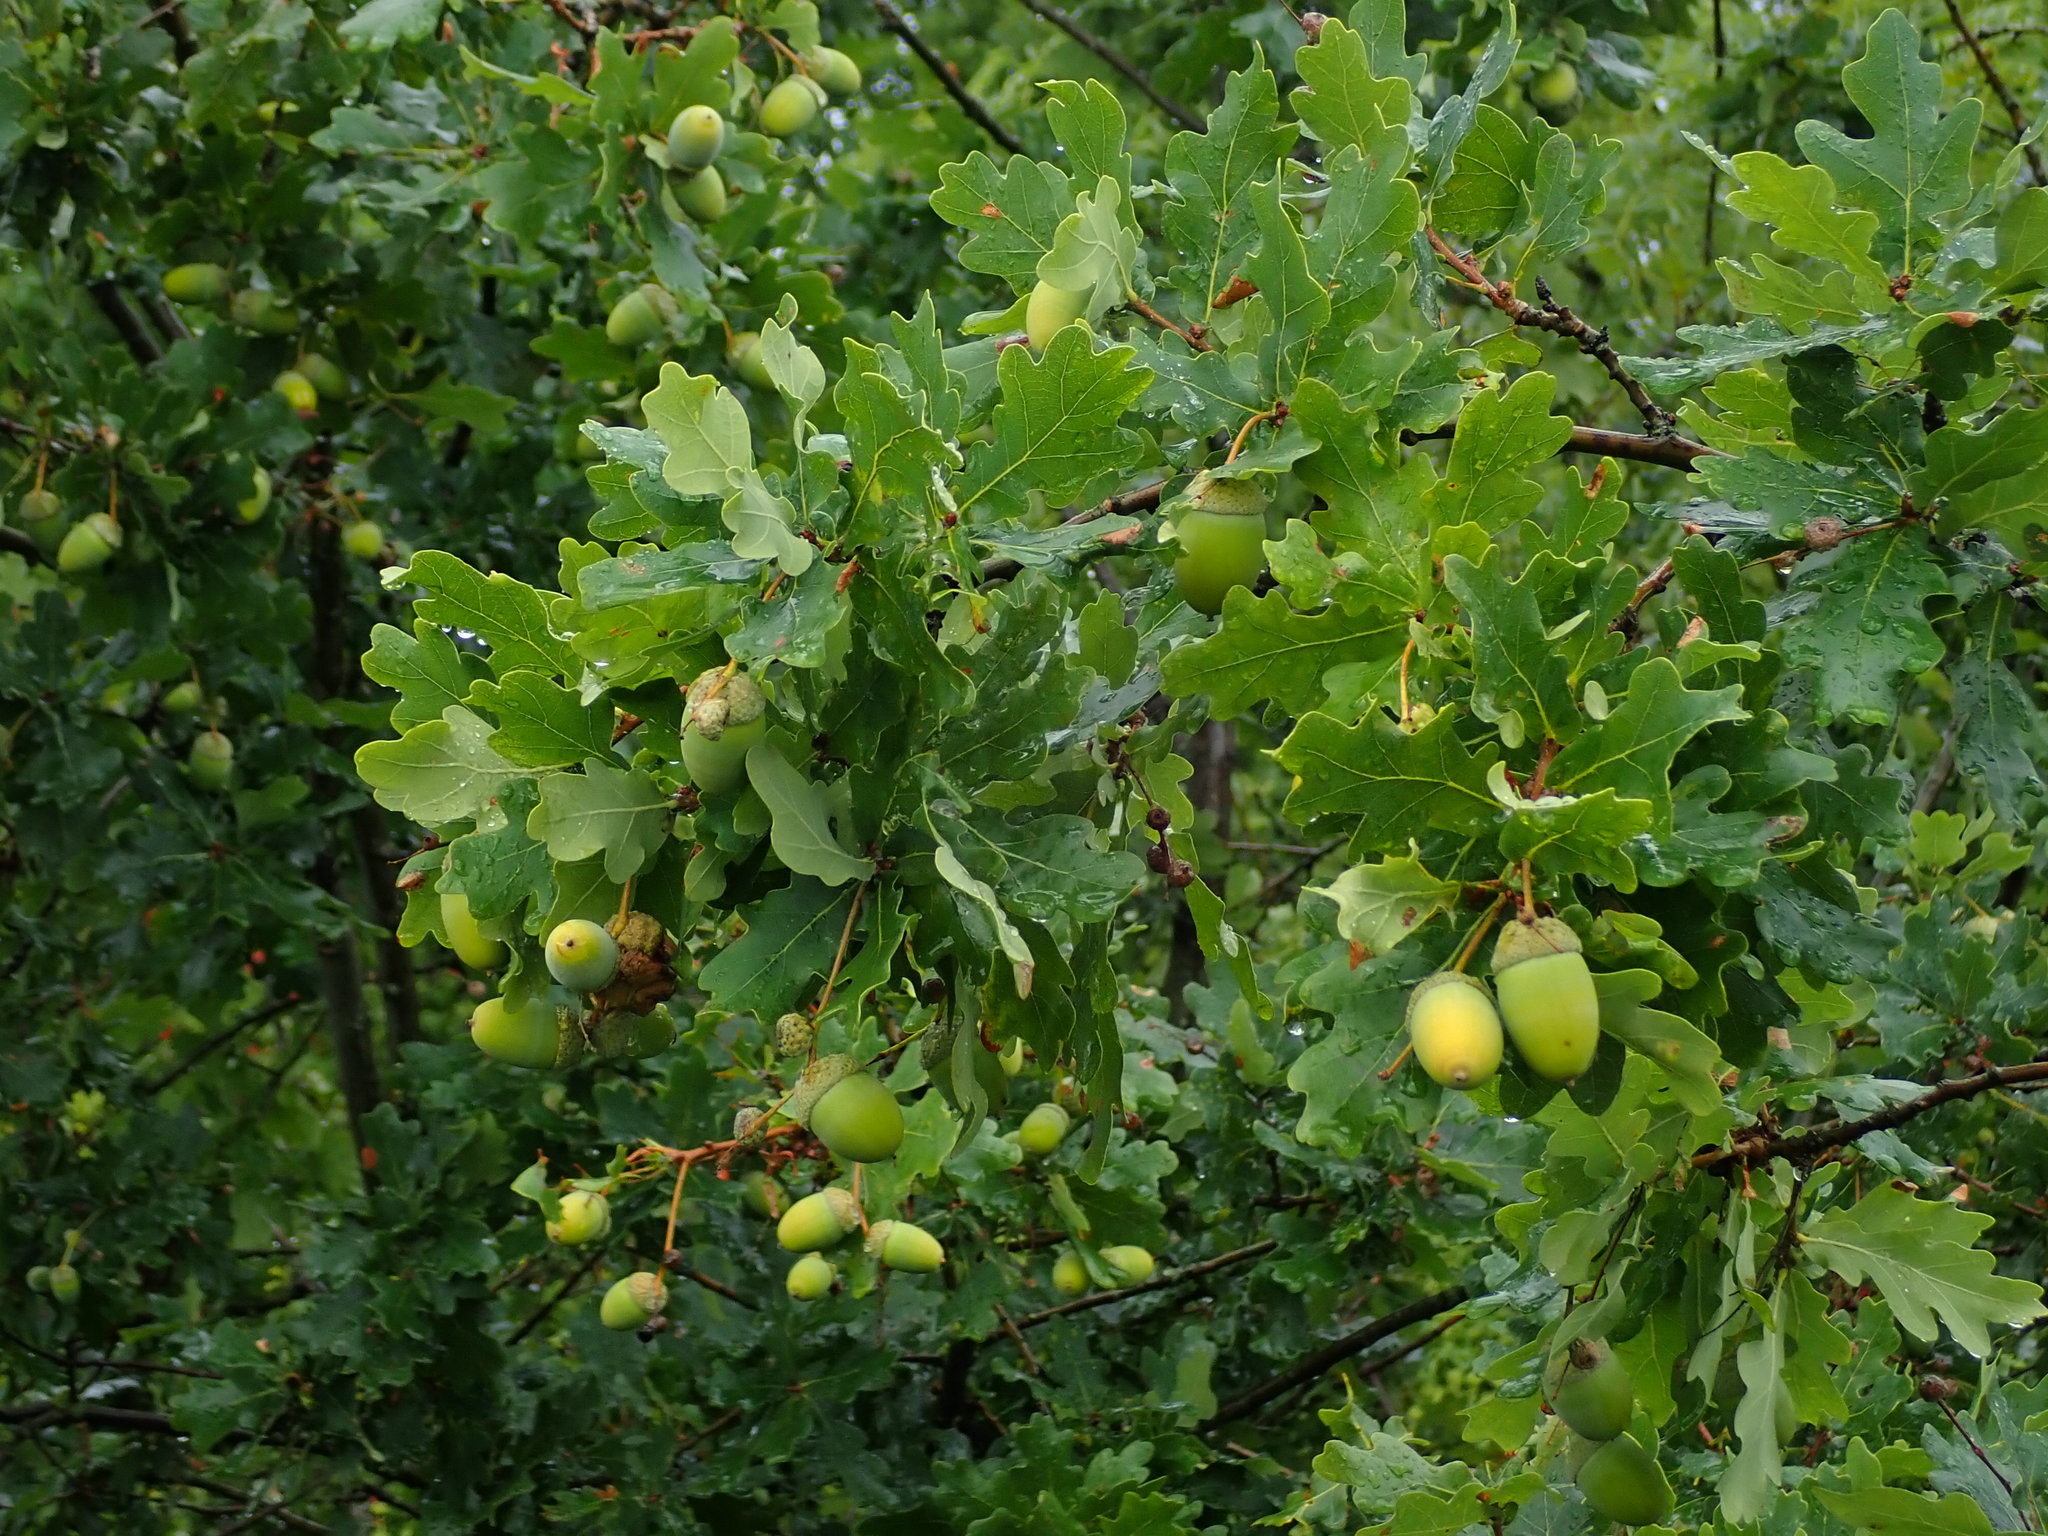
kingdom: Plantae
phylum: Tracheophyta
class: Magnoliopsida
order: Fagales
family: Fagaceae
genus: Quercus
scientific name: Quercus robur
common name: Pedunculate oak
